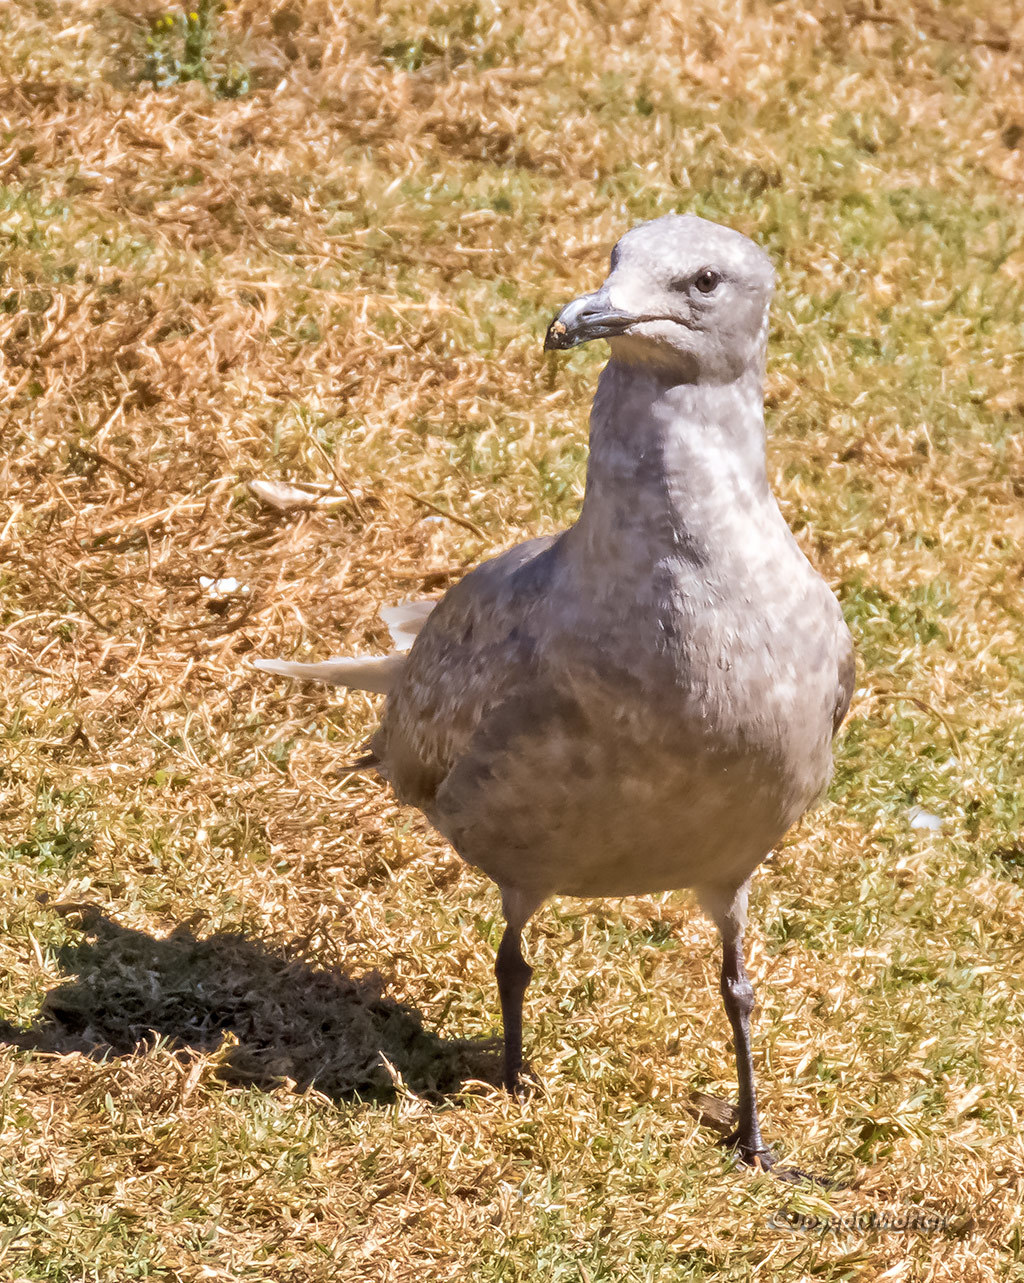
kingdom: Animalia
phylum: Chordata
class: Aves
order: Charadriiformes
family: Laridae
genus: Larus
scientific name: Larus glaucescens
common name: Glaucous-winged gull
